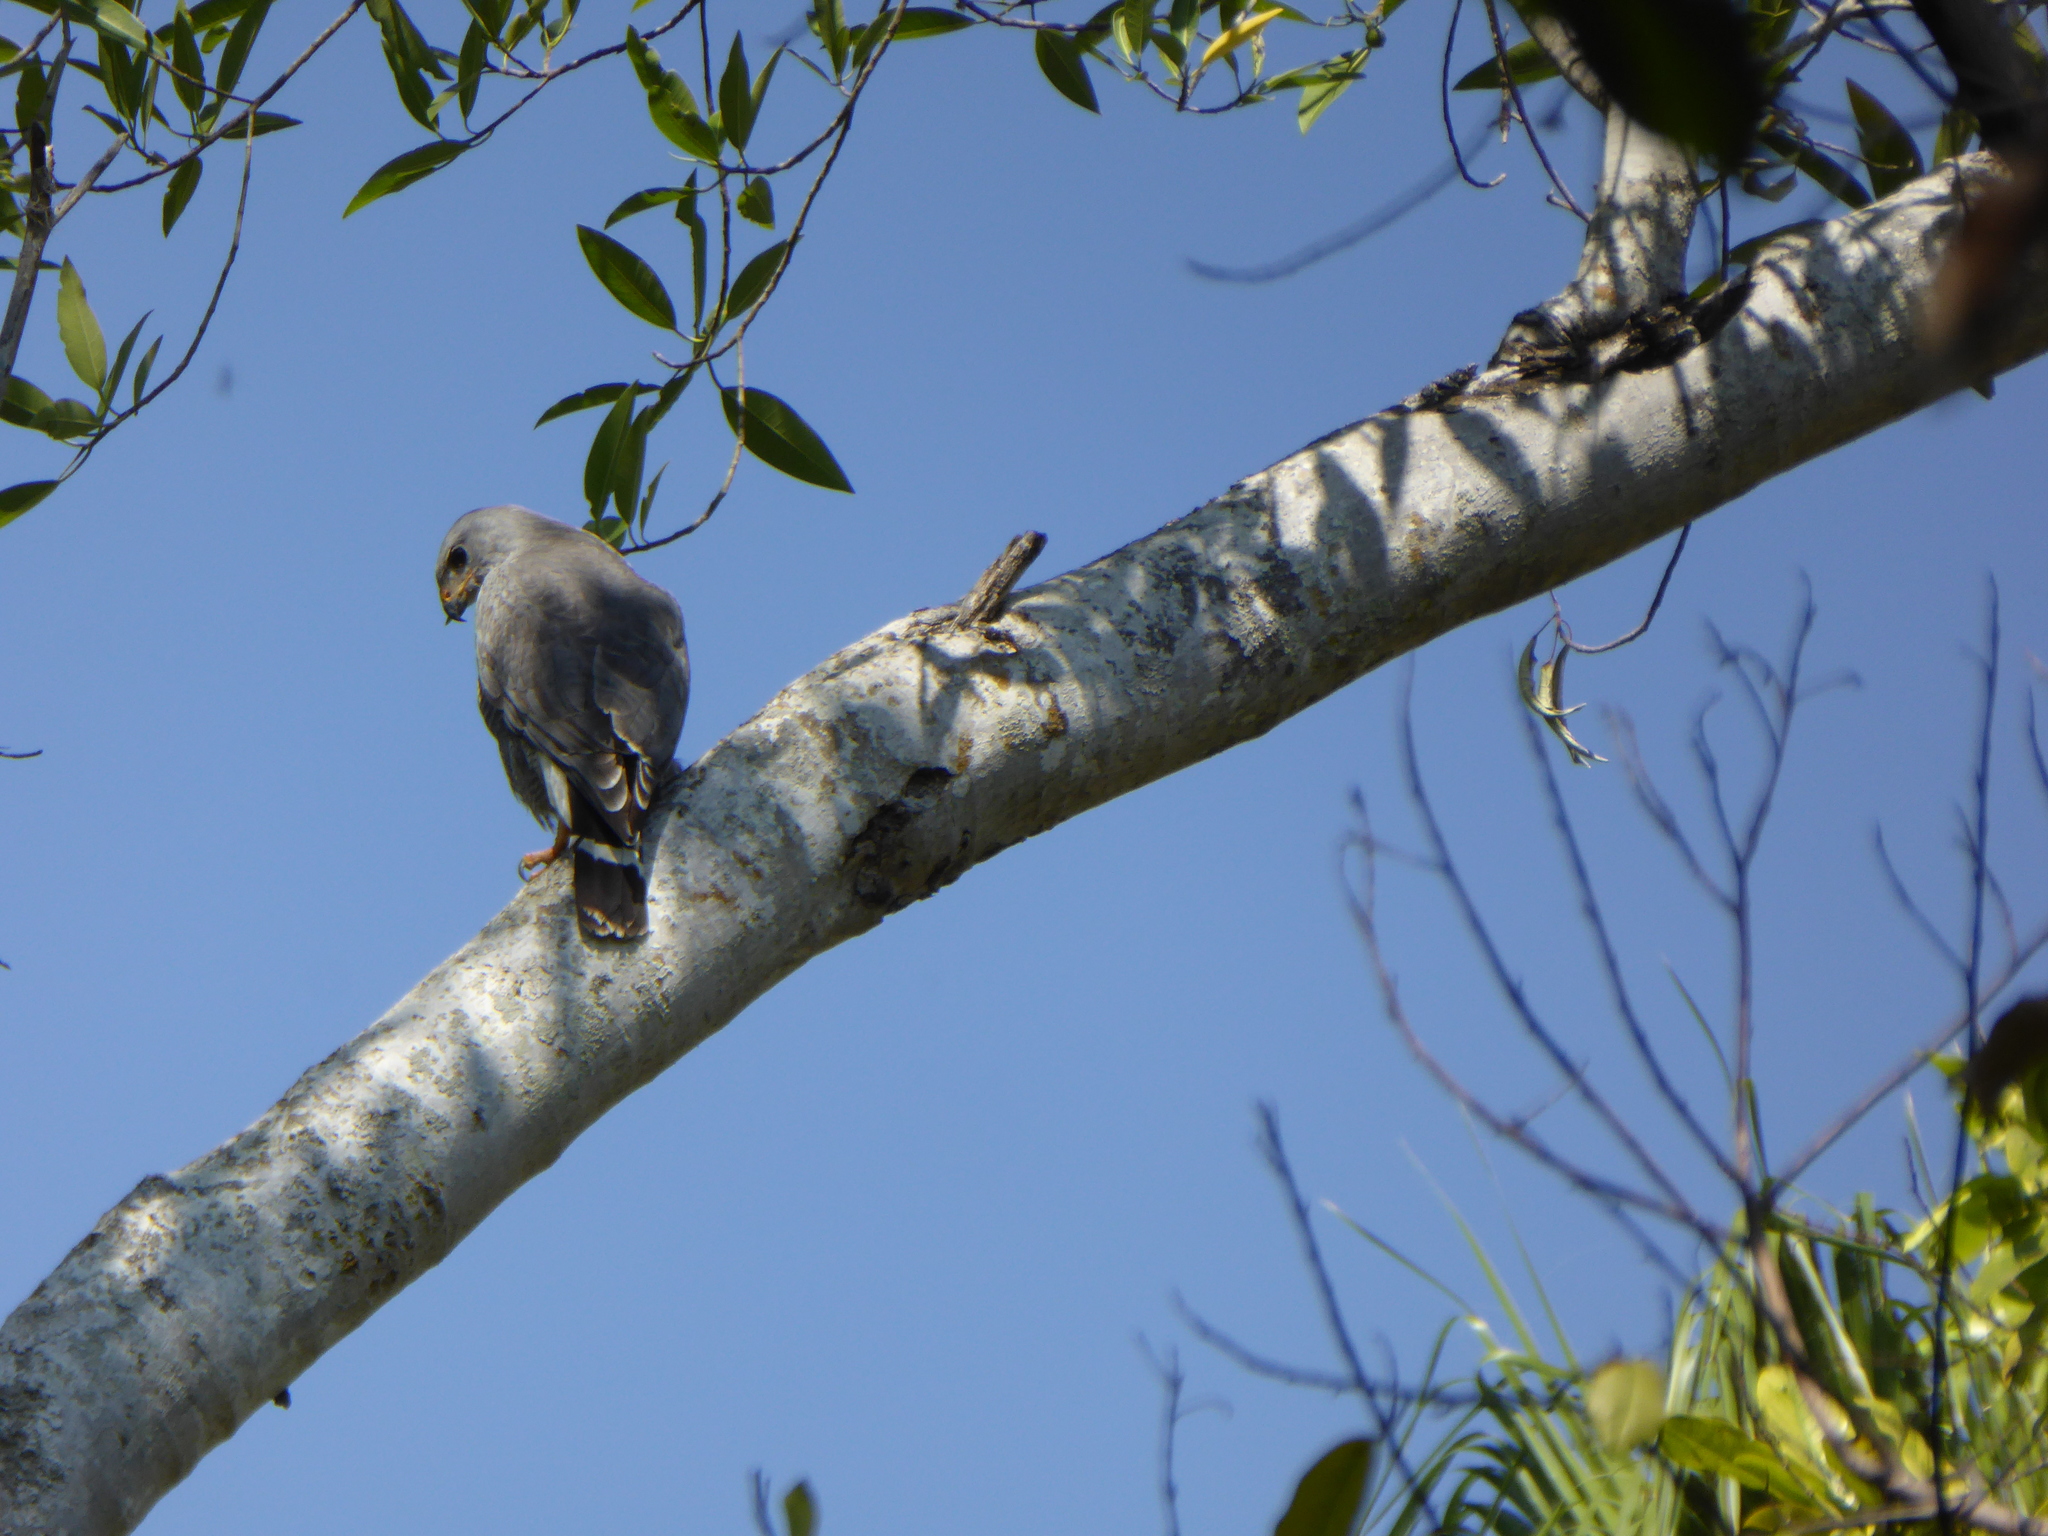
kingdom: Animalia
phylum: Chordata
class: Aves
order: Accipitriformes
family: Accipitridae
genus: Buteo
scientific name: Buteo nitidus
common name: Grey-lined hawk
